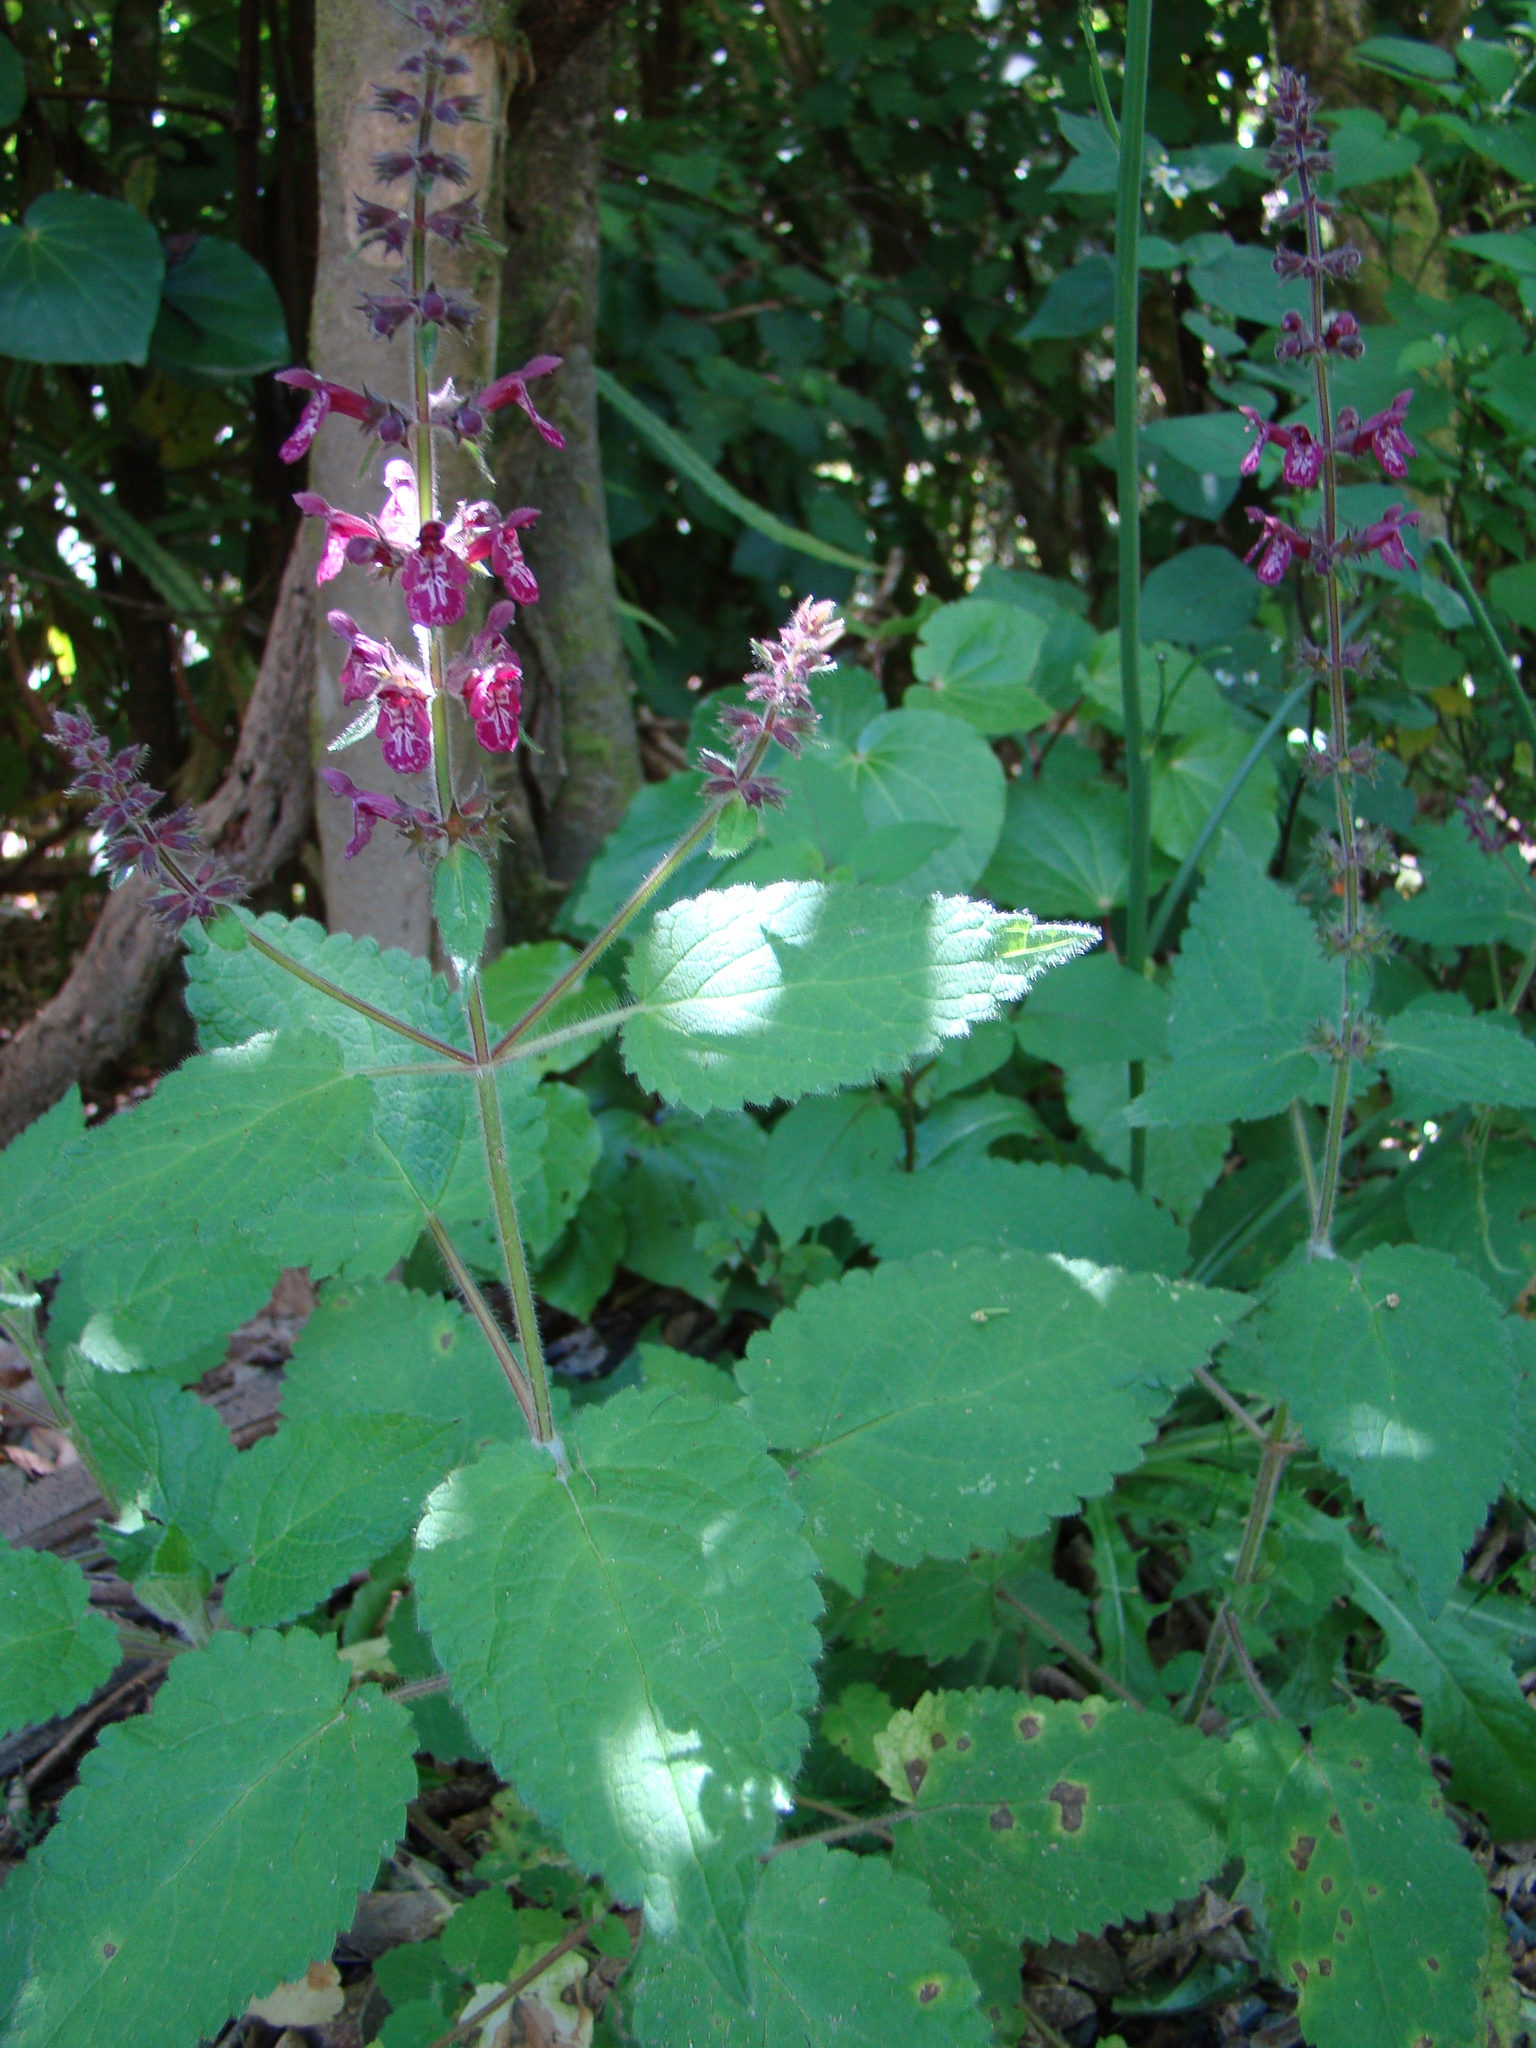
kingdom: Plantae
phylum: Tracheophyta
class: Magnoliopsida
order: Lamiales
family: Lamiaceae
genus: Stachys
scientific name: Stachys sylvatica
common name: Hedge woundwort
